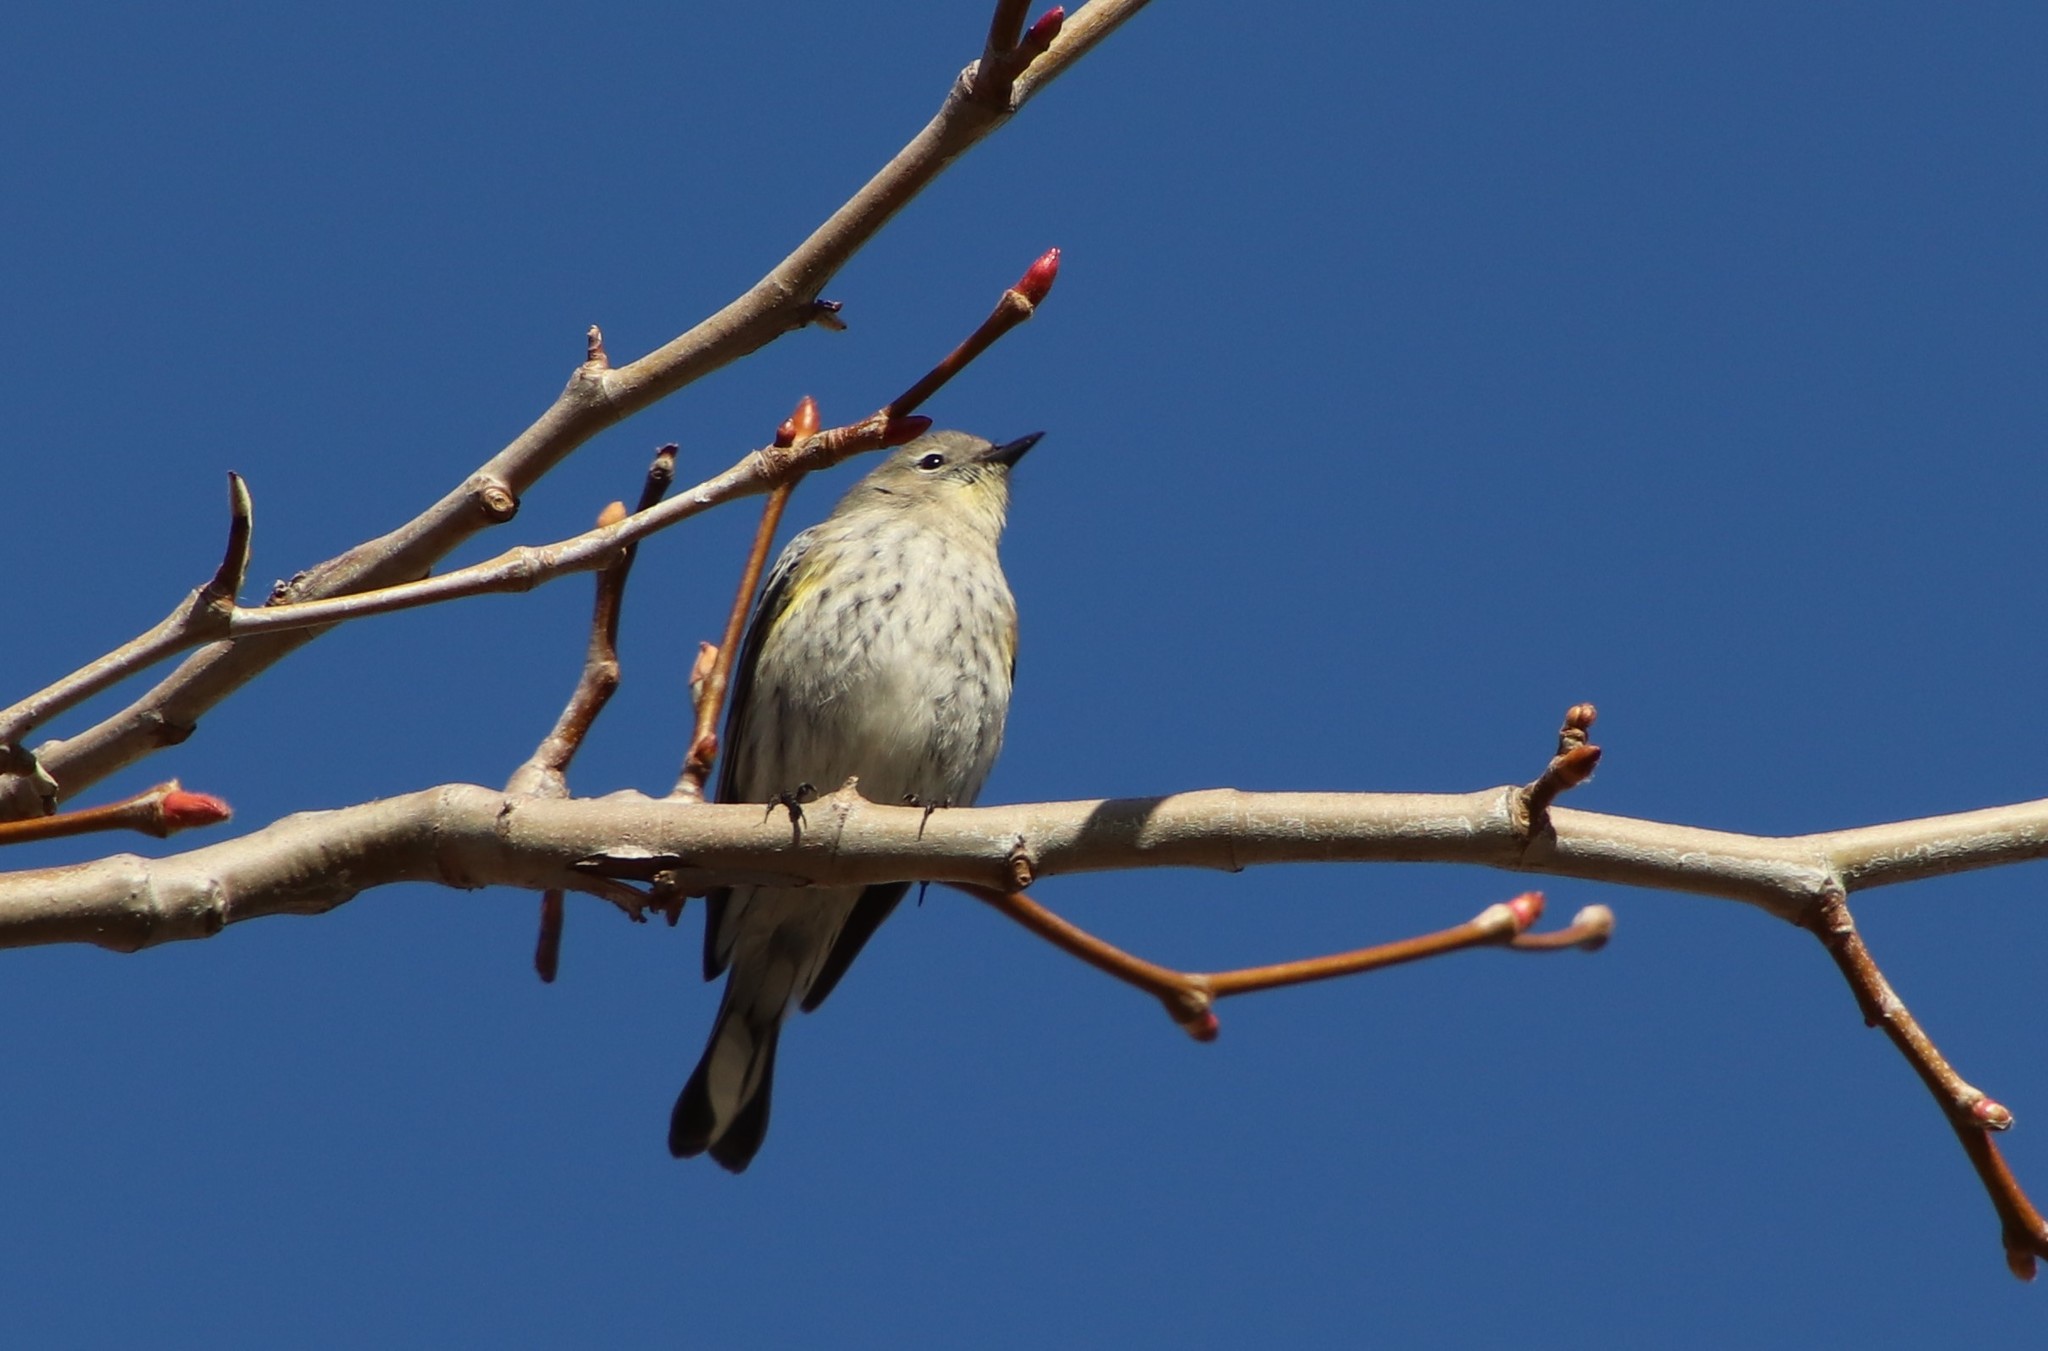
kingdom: Animalia
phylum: Chordata
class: Aves
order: Passeriformes
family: Parulidae
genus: Setophaga
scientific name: Setophaga auduboni
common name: Audubon's warbler
